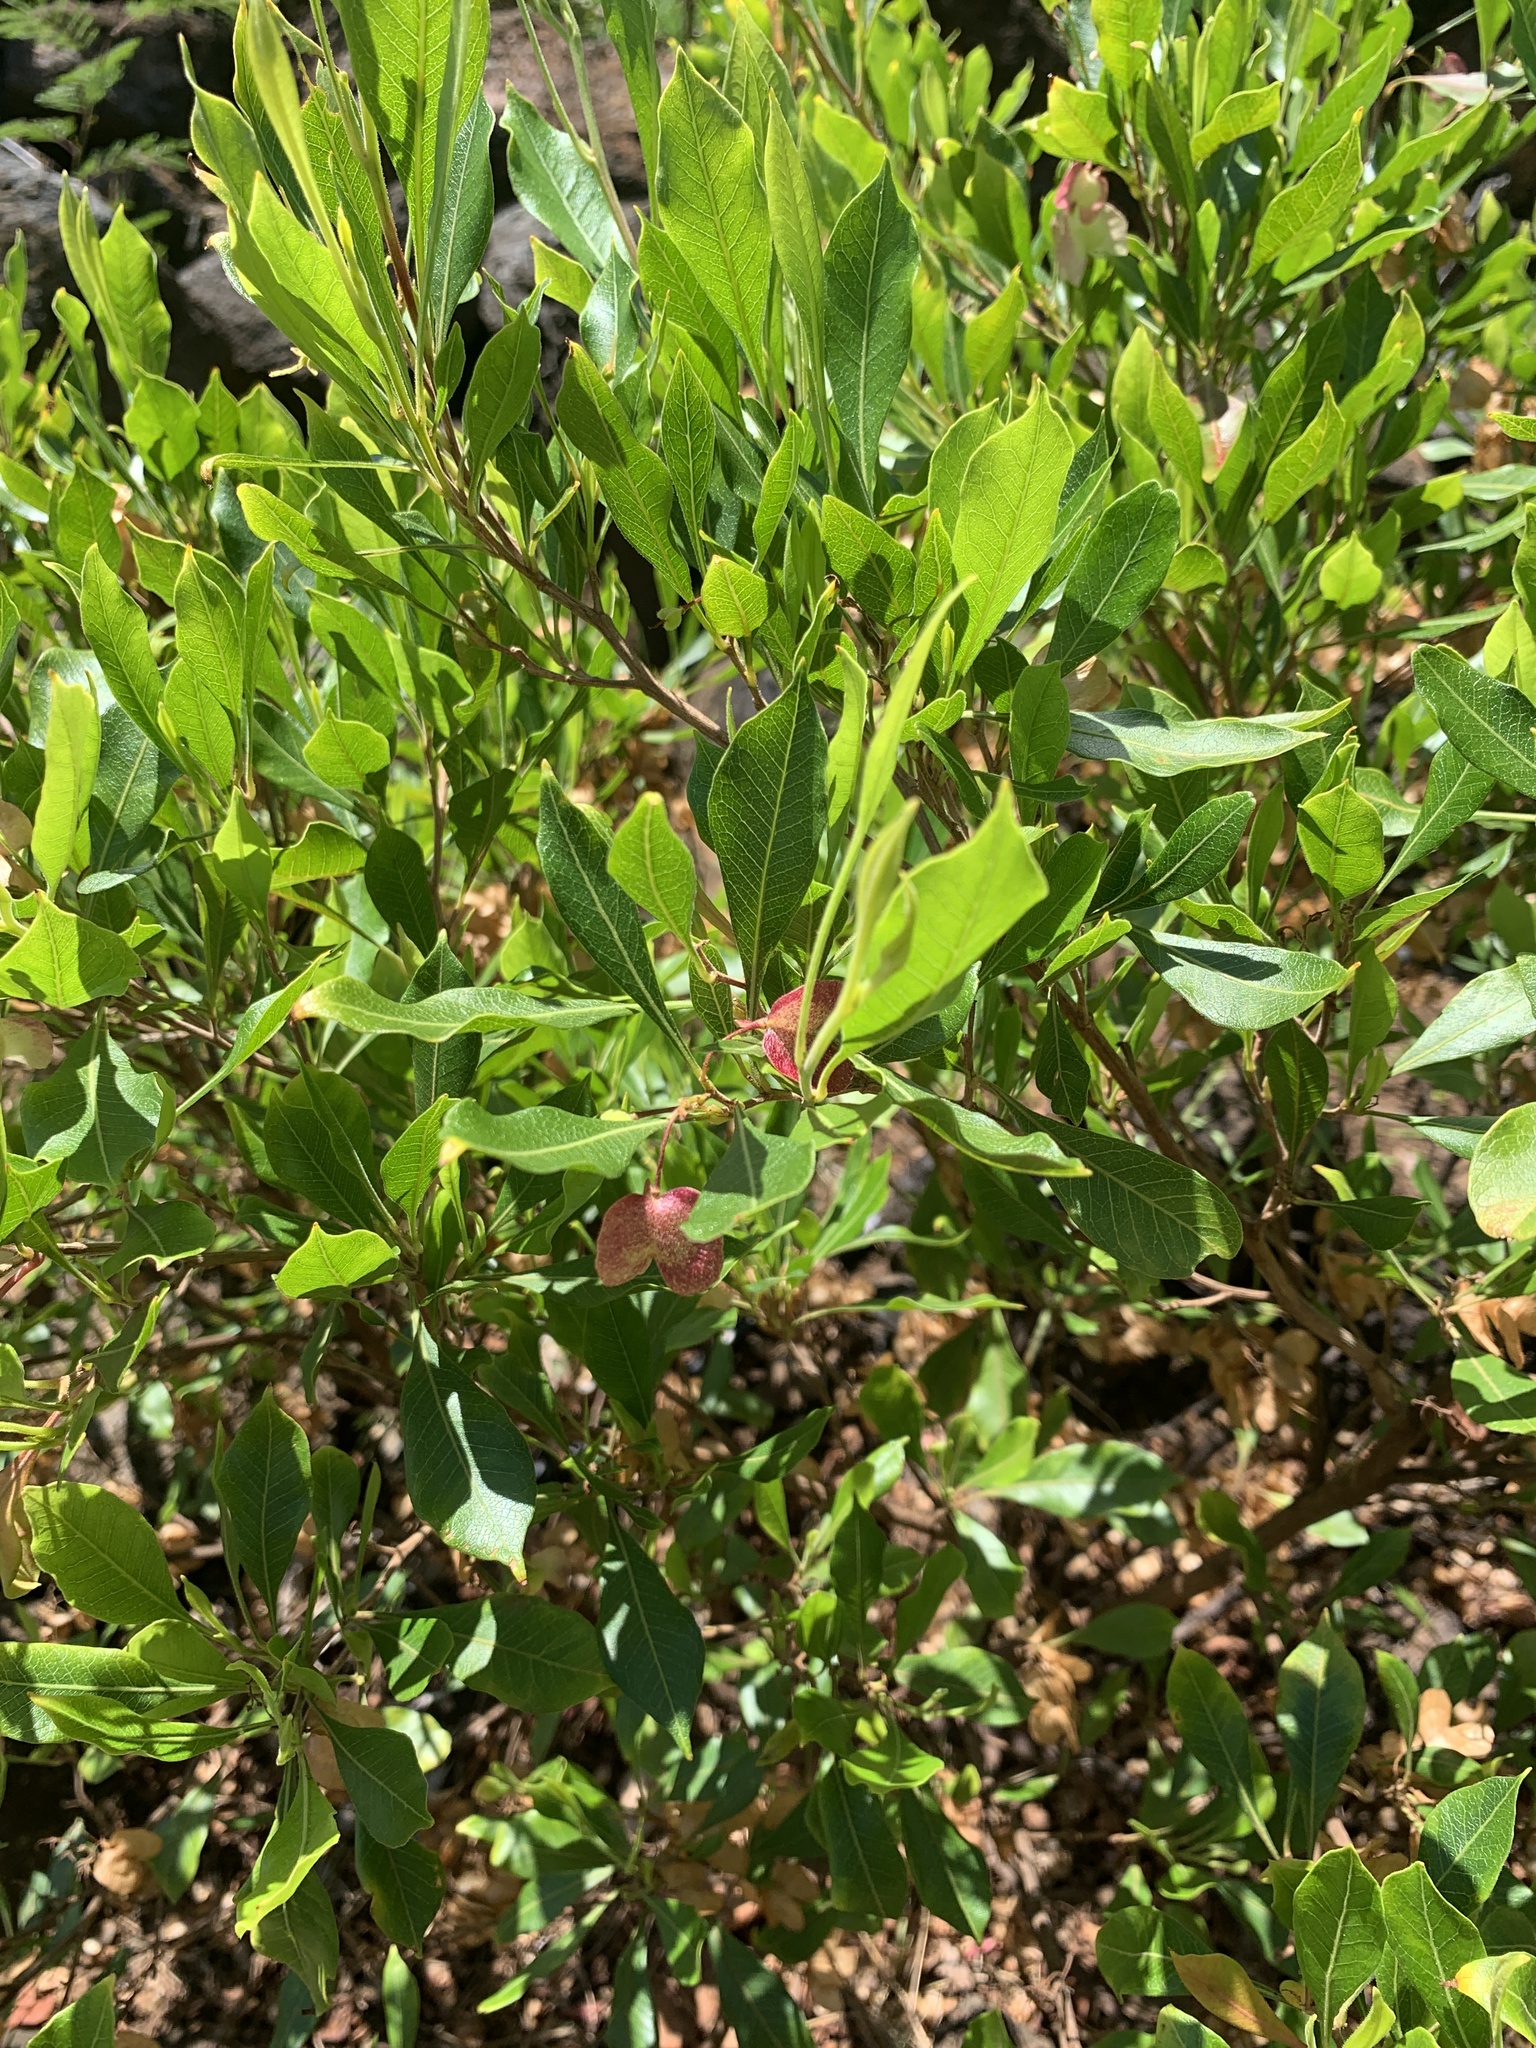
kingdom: Plantae
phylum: Tracheophyta
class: Magnoliopsida
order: Sapindales
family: Sapindaceae
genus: Dodonaea
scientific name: Dodonaea viscosa
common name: Hopbush
